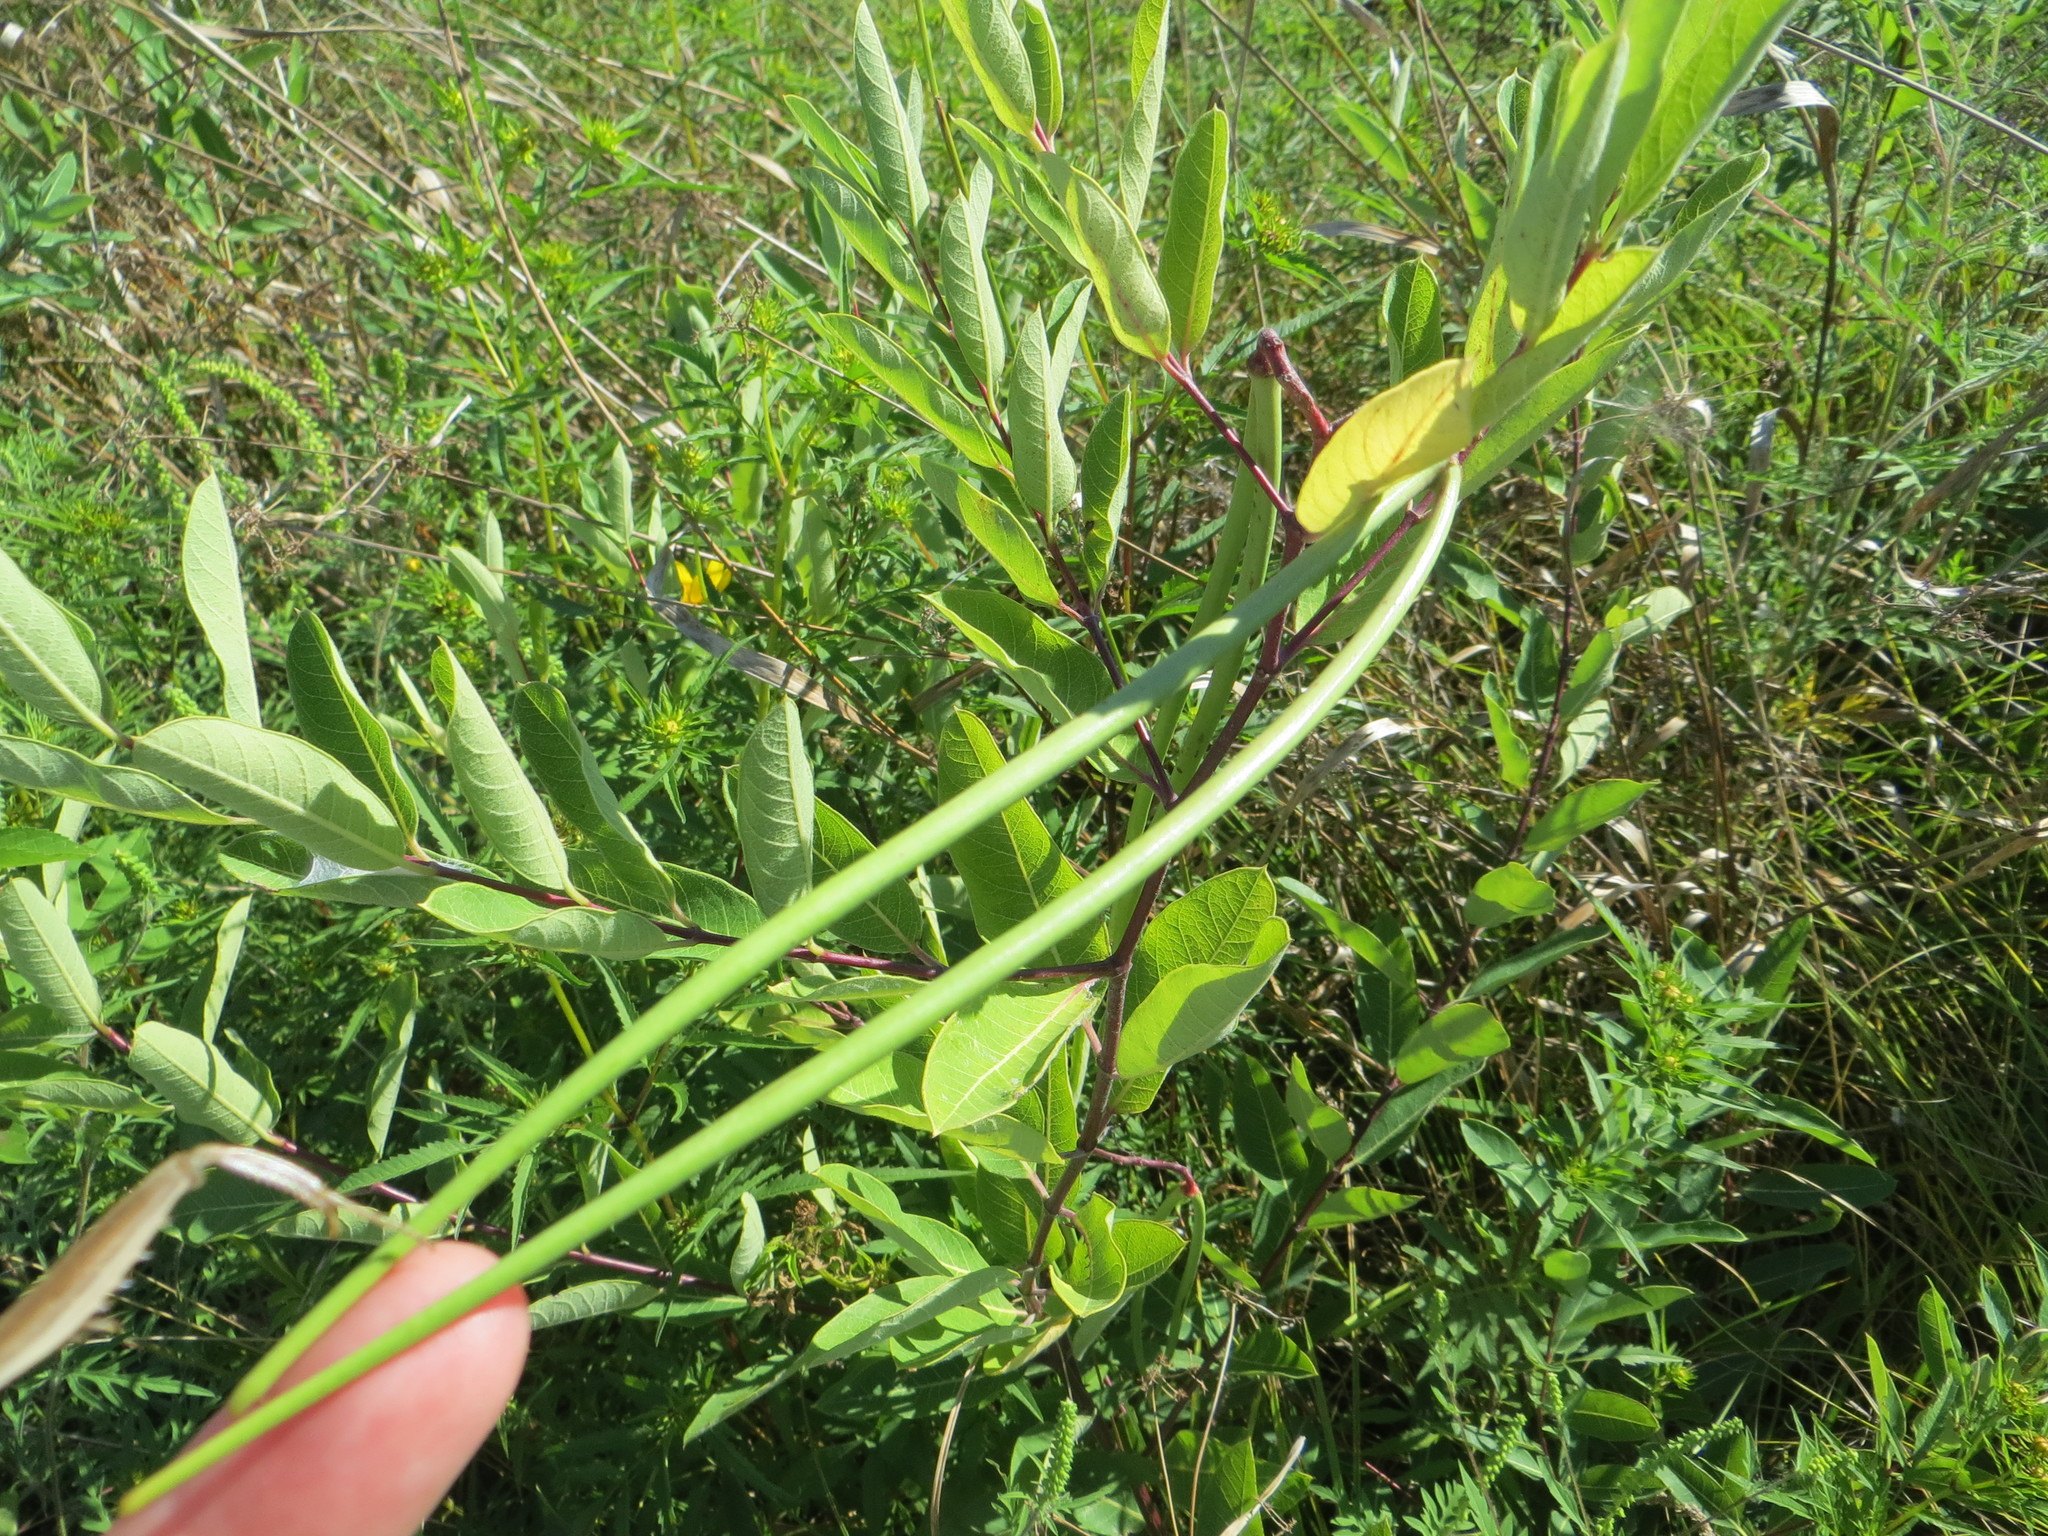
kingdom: Plantae
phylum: Tracheophyta
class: Magnoliopsida
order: Gentianales
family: Apocynaceae
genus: Apocynum
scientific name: Apocynum cannabinum
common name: Hemp dogbane
